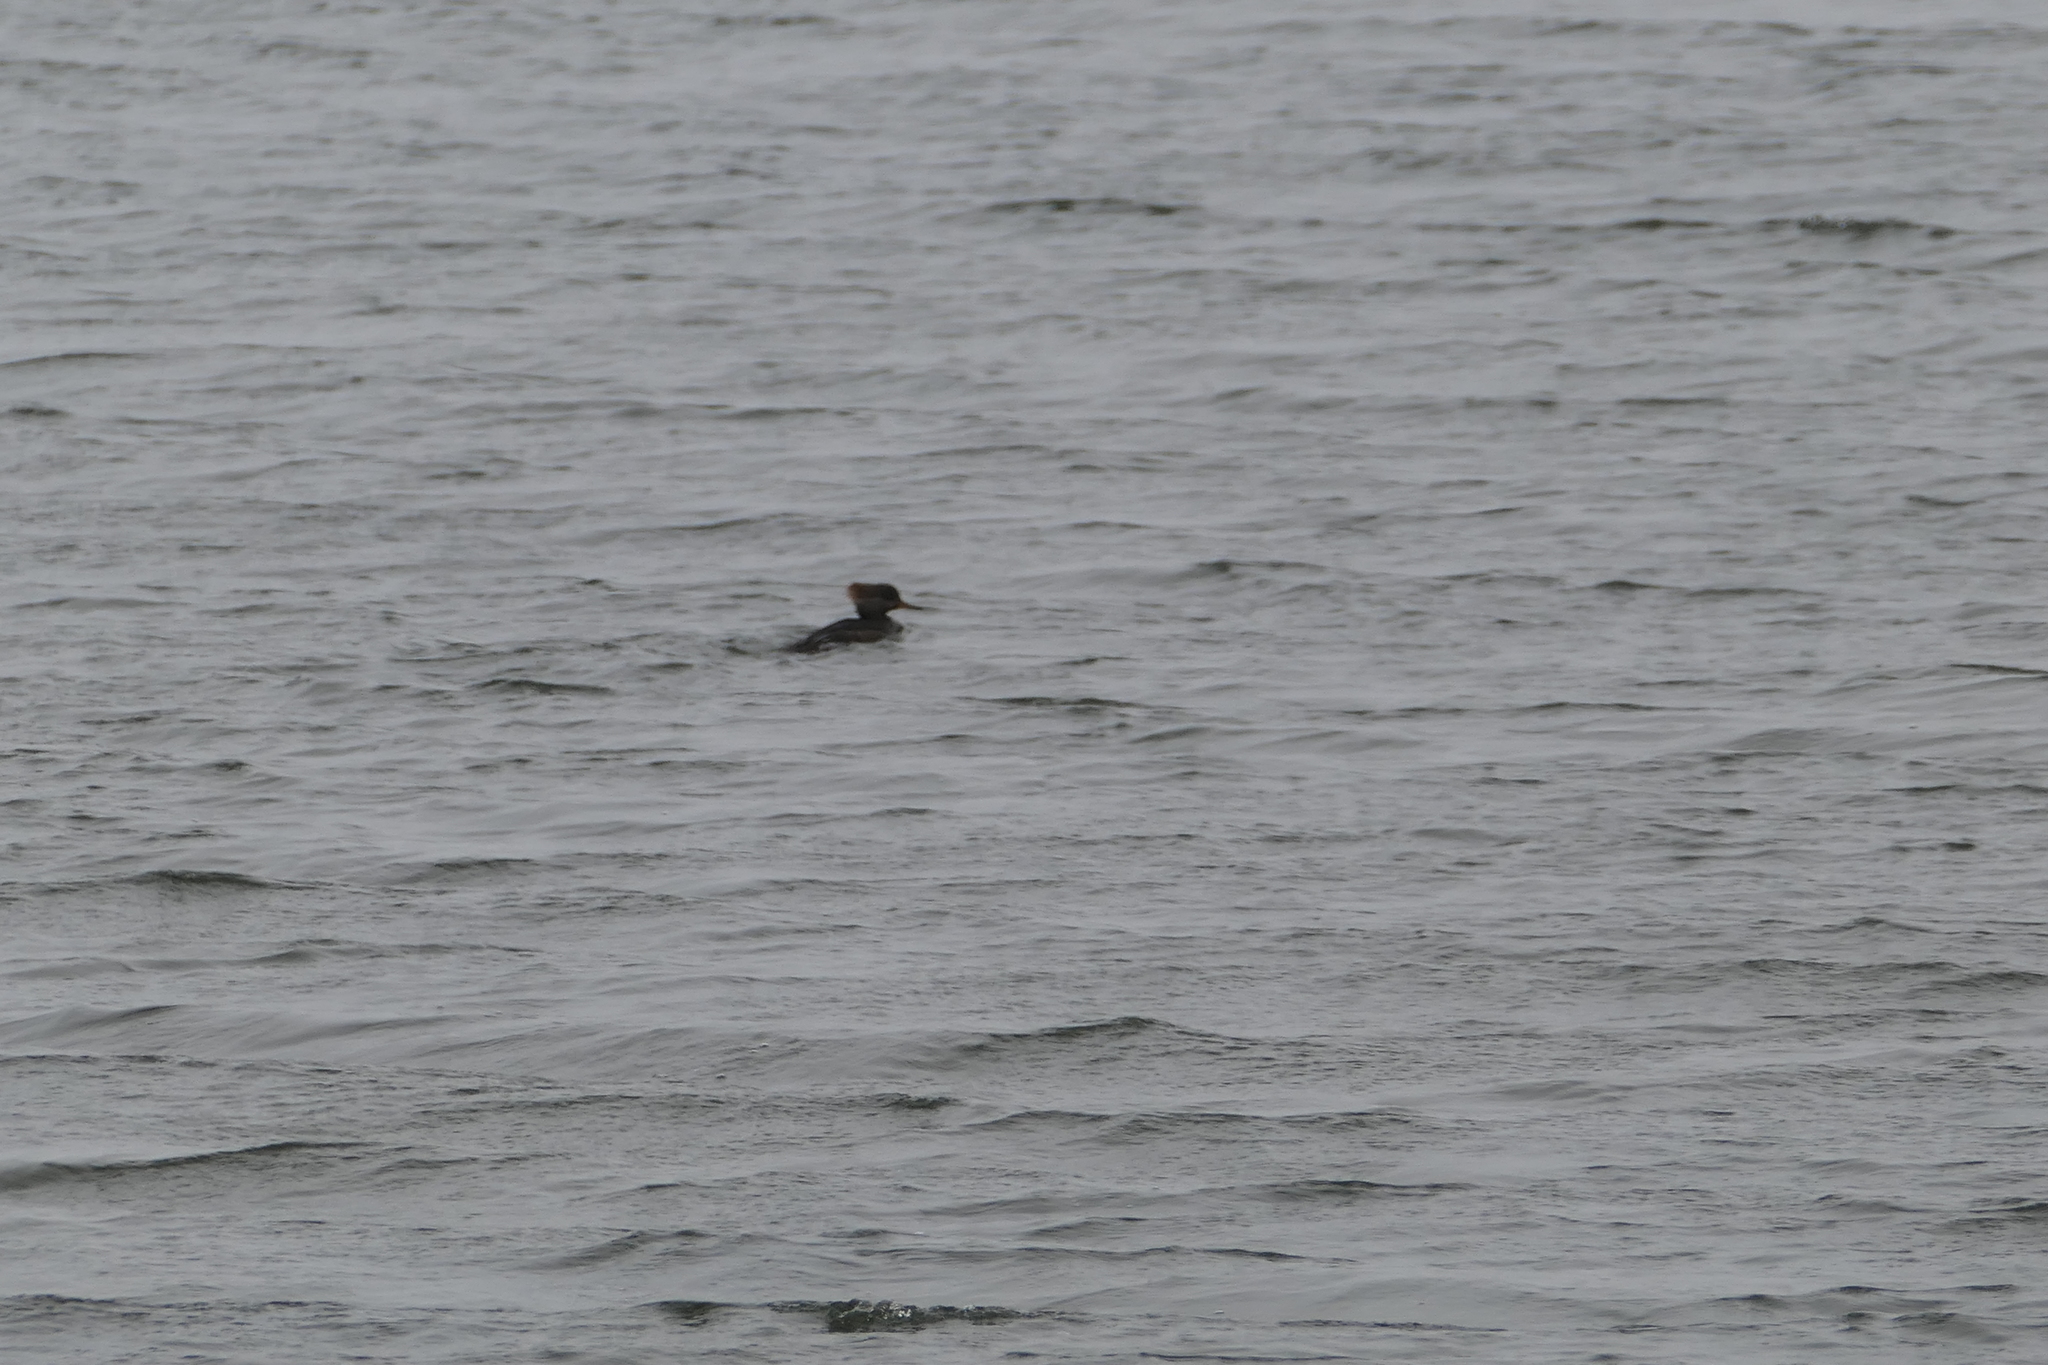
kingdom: Animalia
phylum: Chordata
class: Aves
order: Anseriformes
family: Anatidae
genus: Lophodytes
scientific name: Lophodytes cucullatus
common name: Hooded merganser
